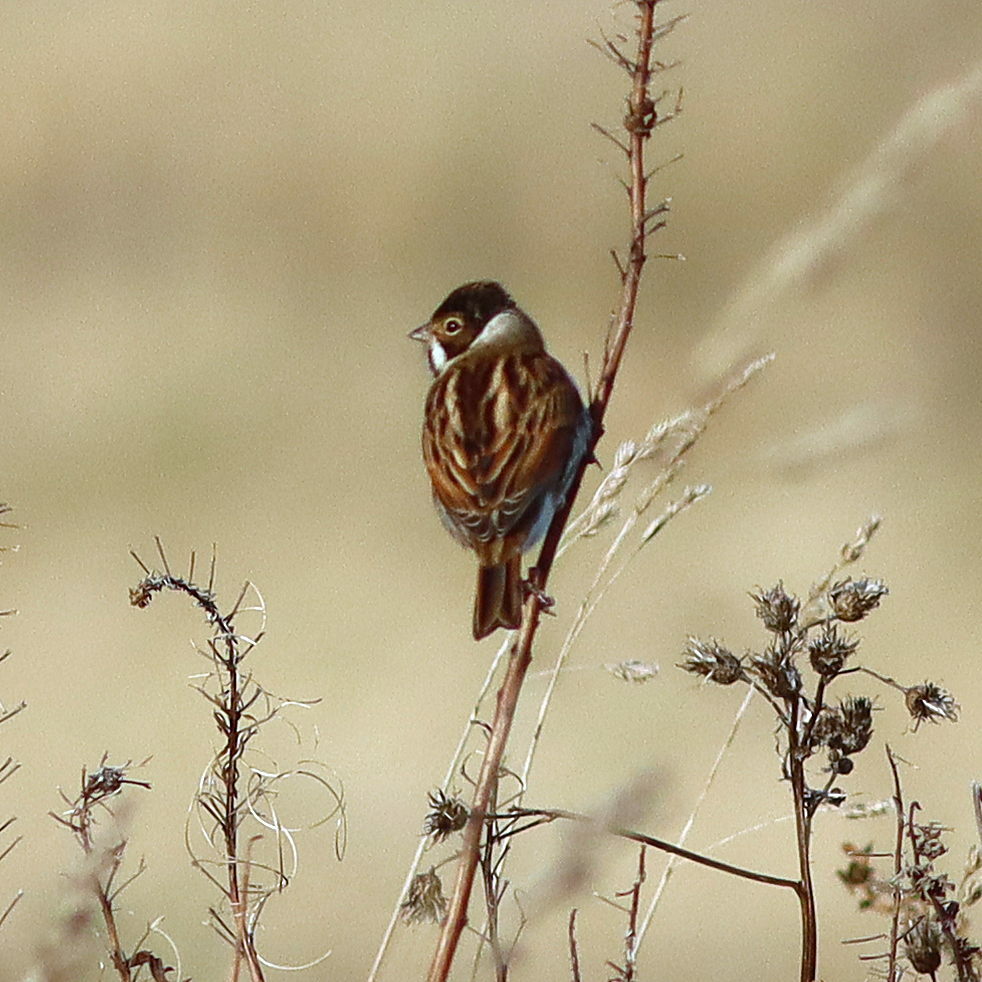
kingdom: Animalia
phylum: Chordata
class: Aves
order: Passeriformes
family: Emberizidae
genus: Emberiza
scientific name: Emberiza schoeniclus
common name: Reed bunting
